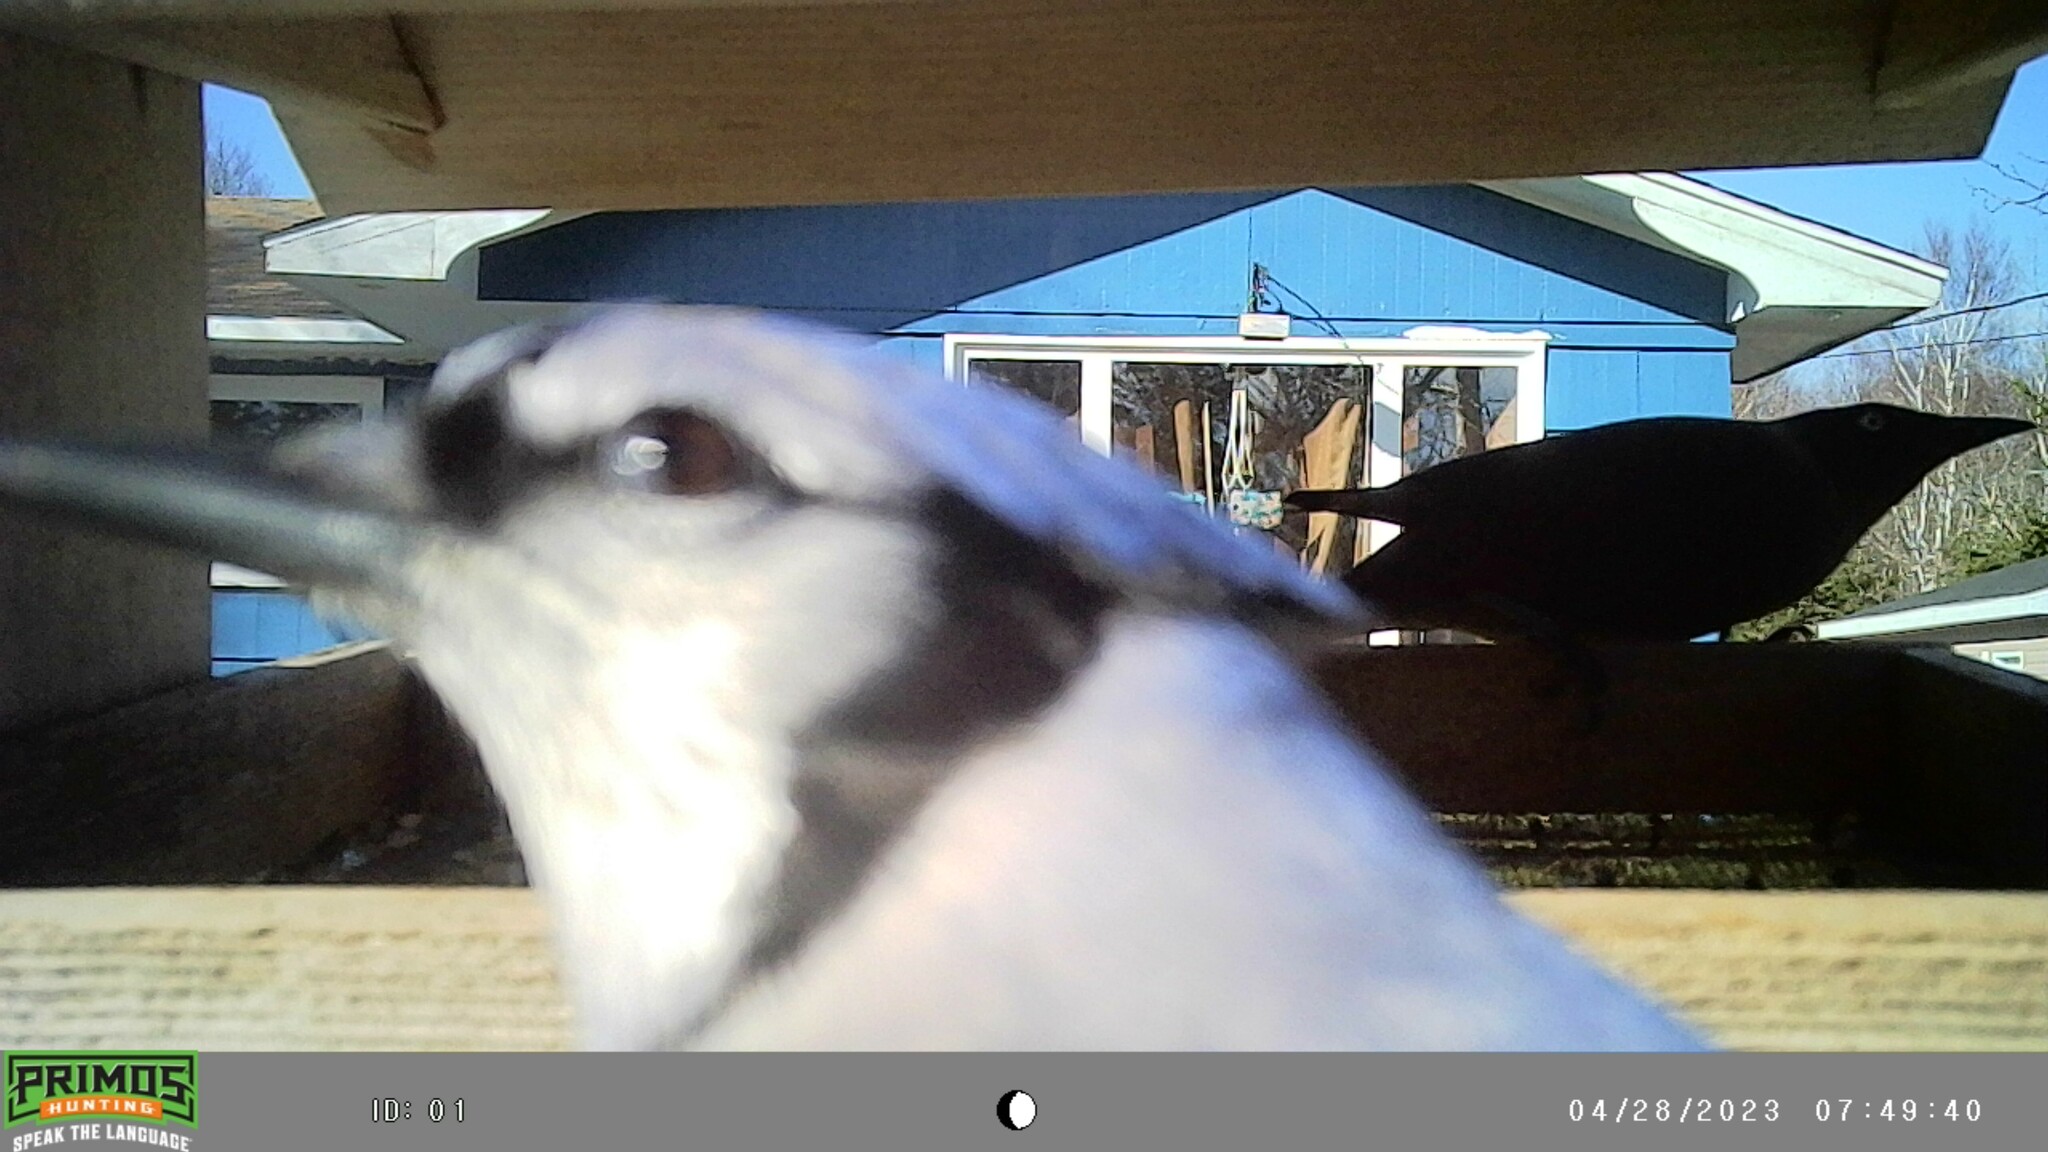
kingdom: Animalia
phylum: Chordata
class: Aves
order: Passeriformes
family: Icteridae
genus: Quiscalus
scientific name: Quiscalus quiscula
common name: Common grackle
